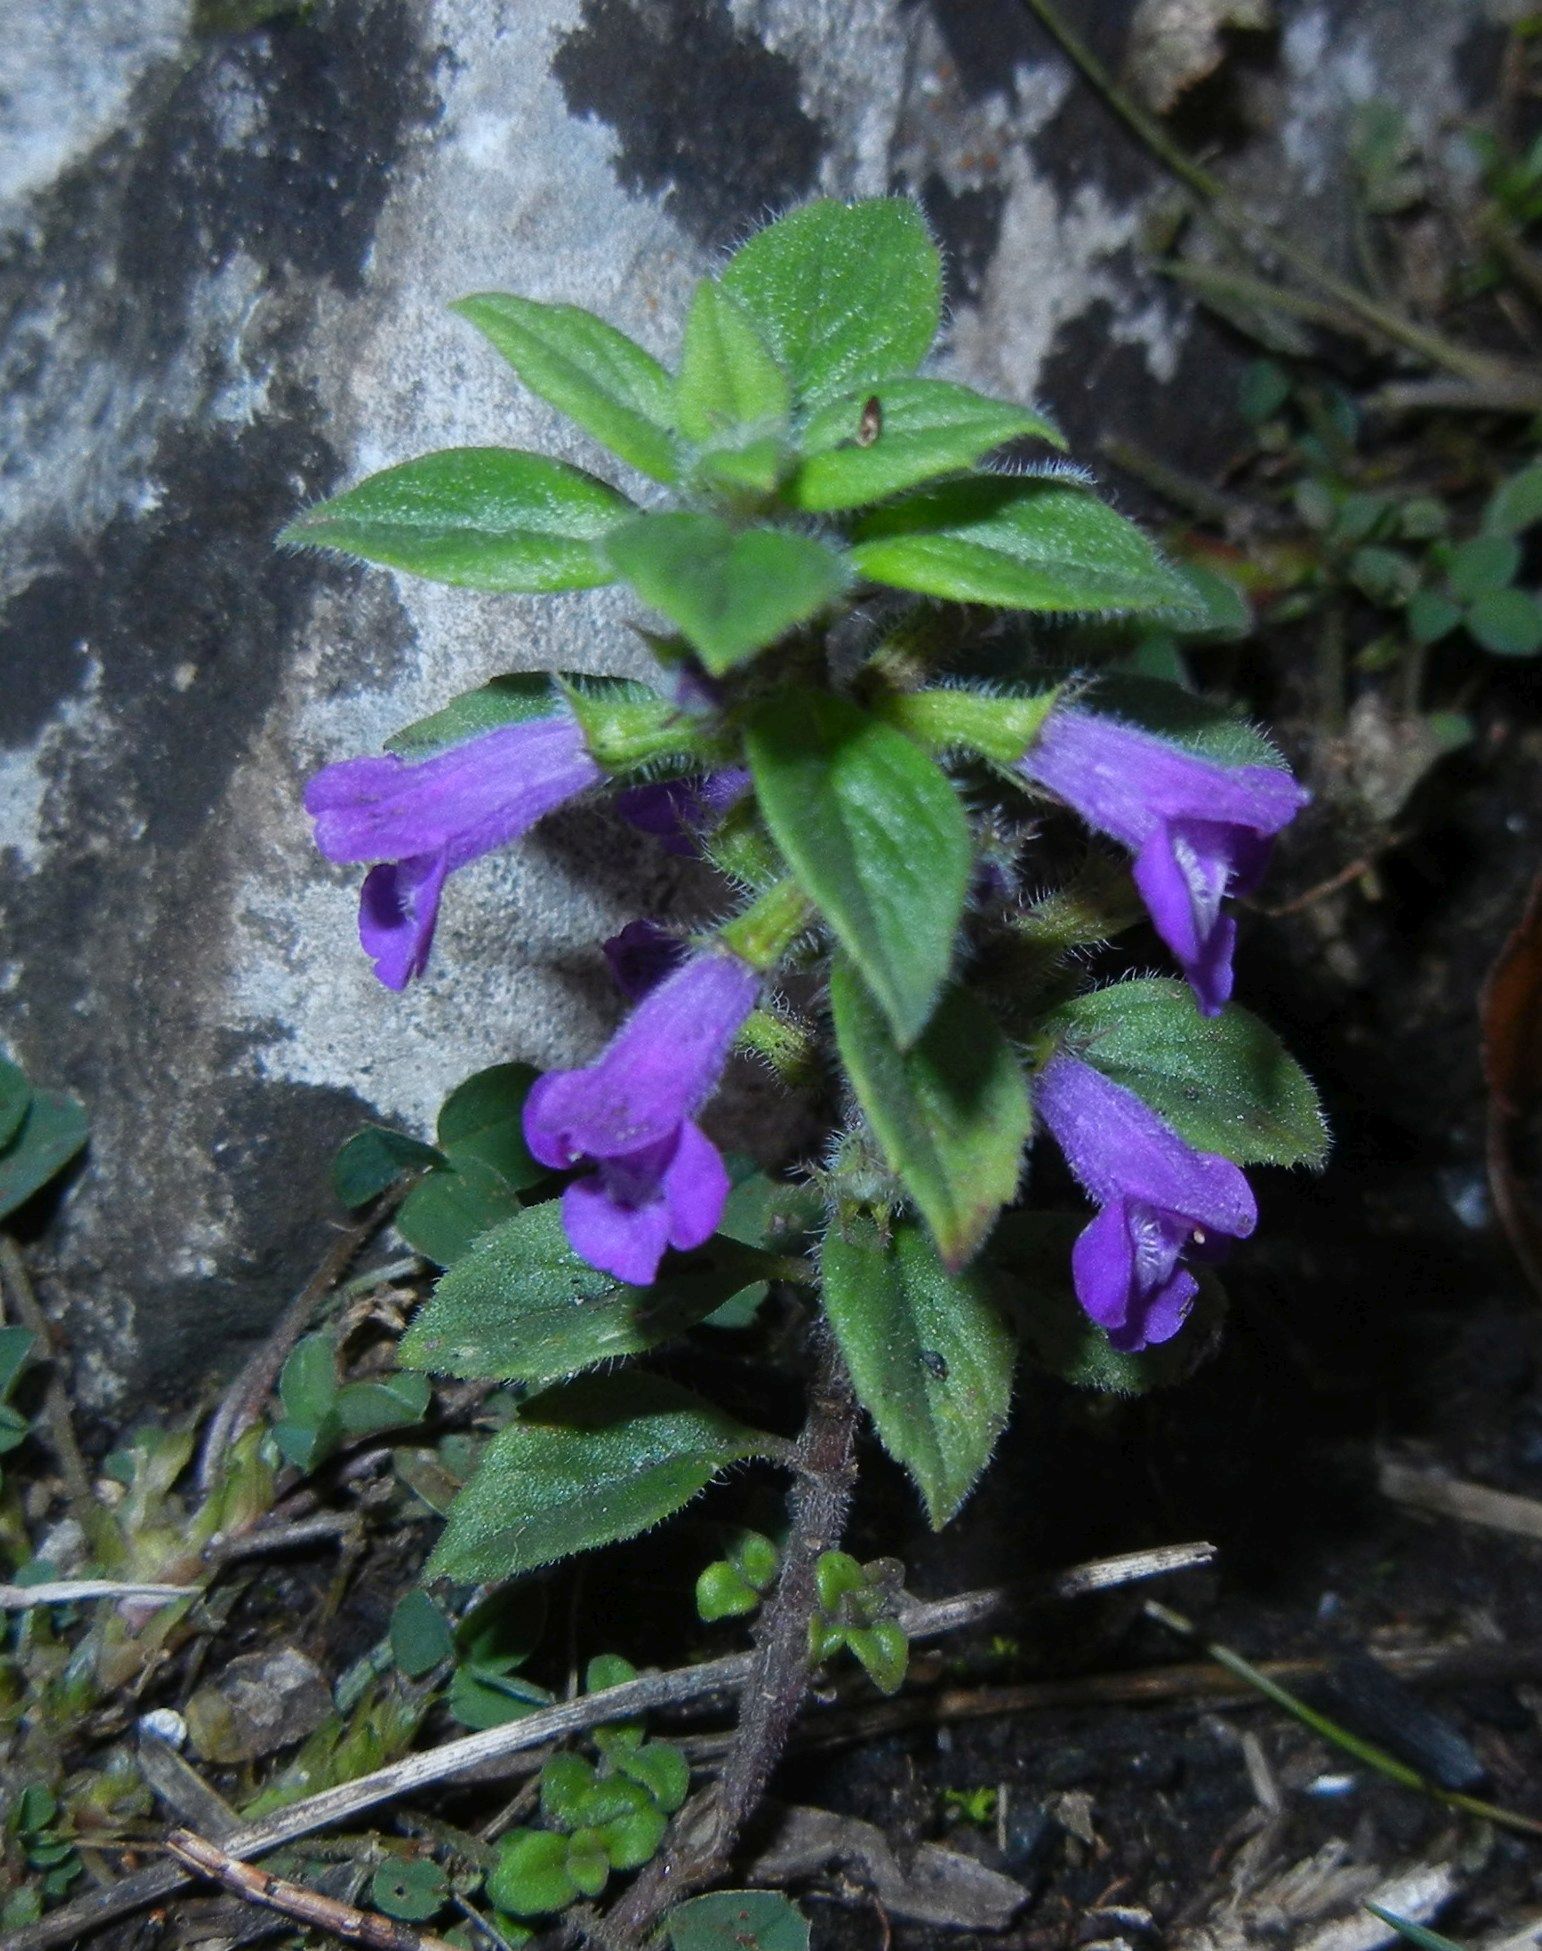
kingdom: Plantae
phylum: Tracheophyta
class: Magnoliopsida
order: Lamiales
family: Lamiaceae
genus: Clinopodium
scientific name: Clinopodium acinos
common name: Basil thyme
